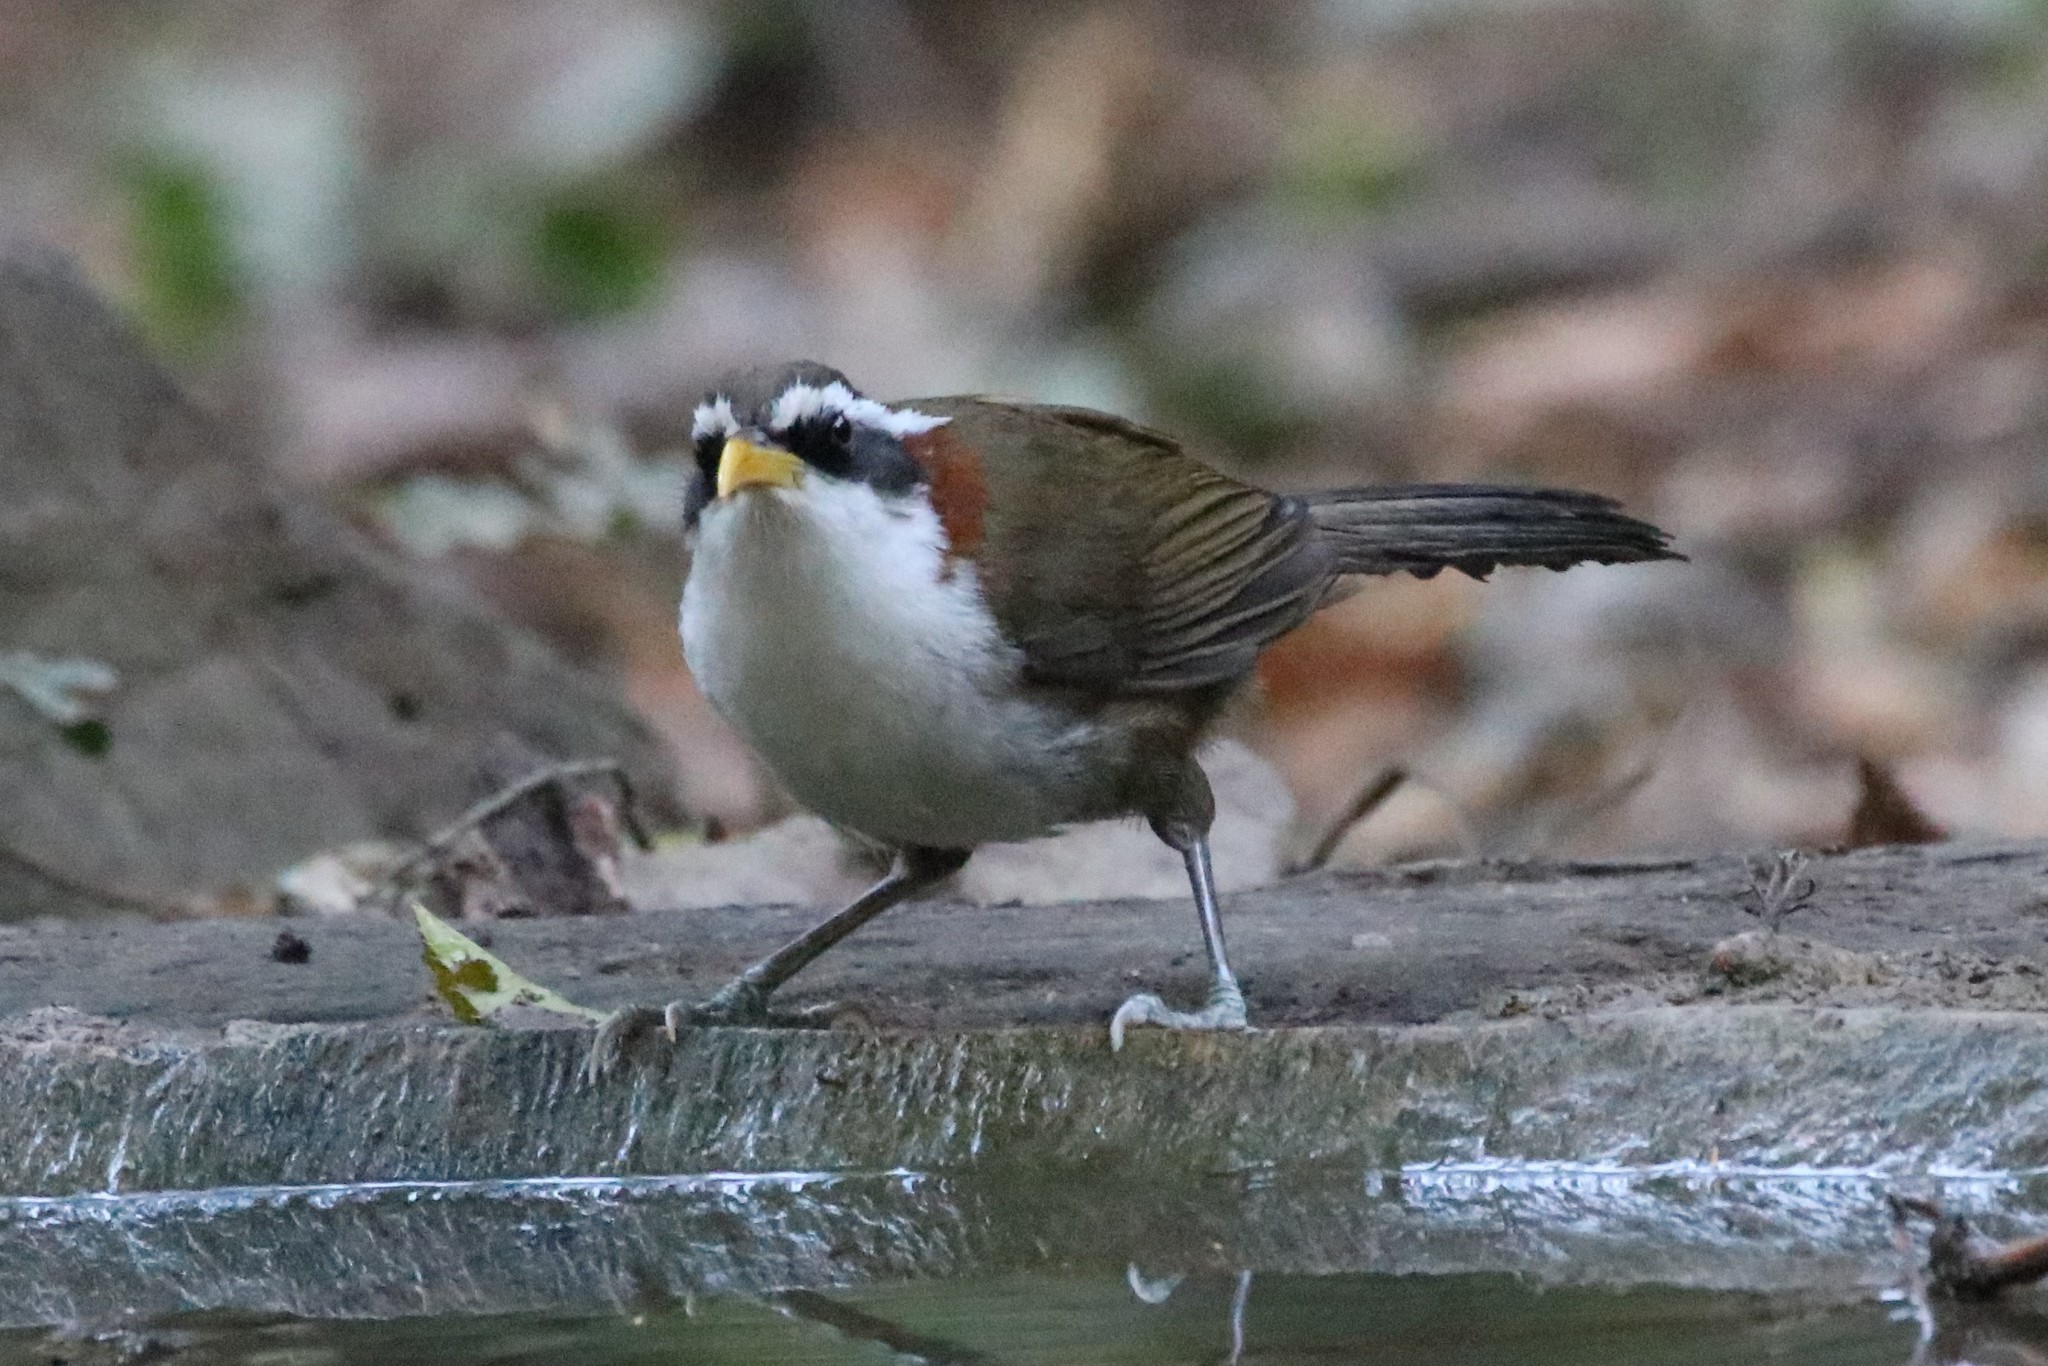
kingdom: Animalia
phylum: Chordata
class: Aves
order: Passeriformes
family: Timaliidae
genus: Pomatorhinus
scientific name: Pomatorhinus schisticeps
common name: White-browed scimitar babbler
